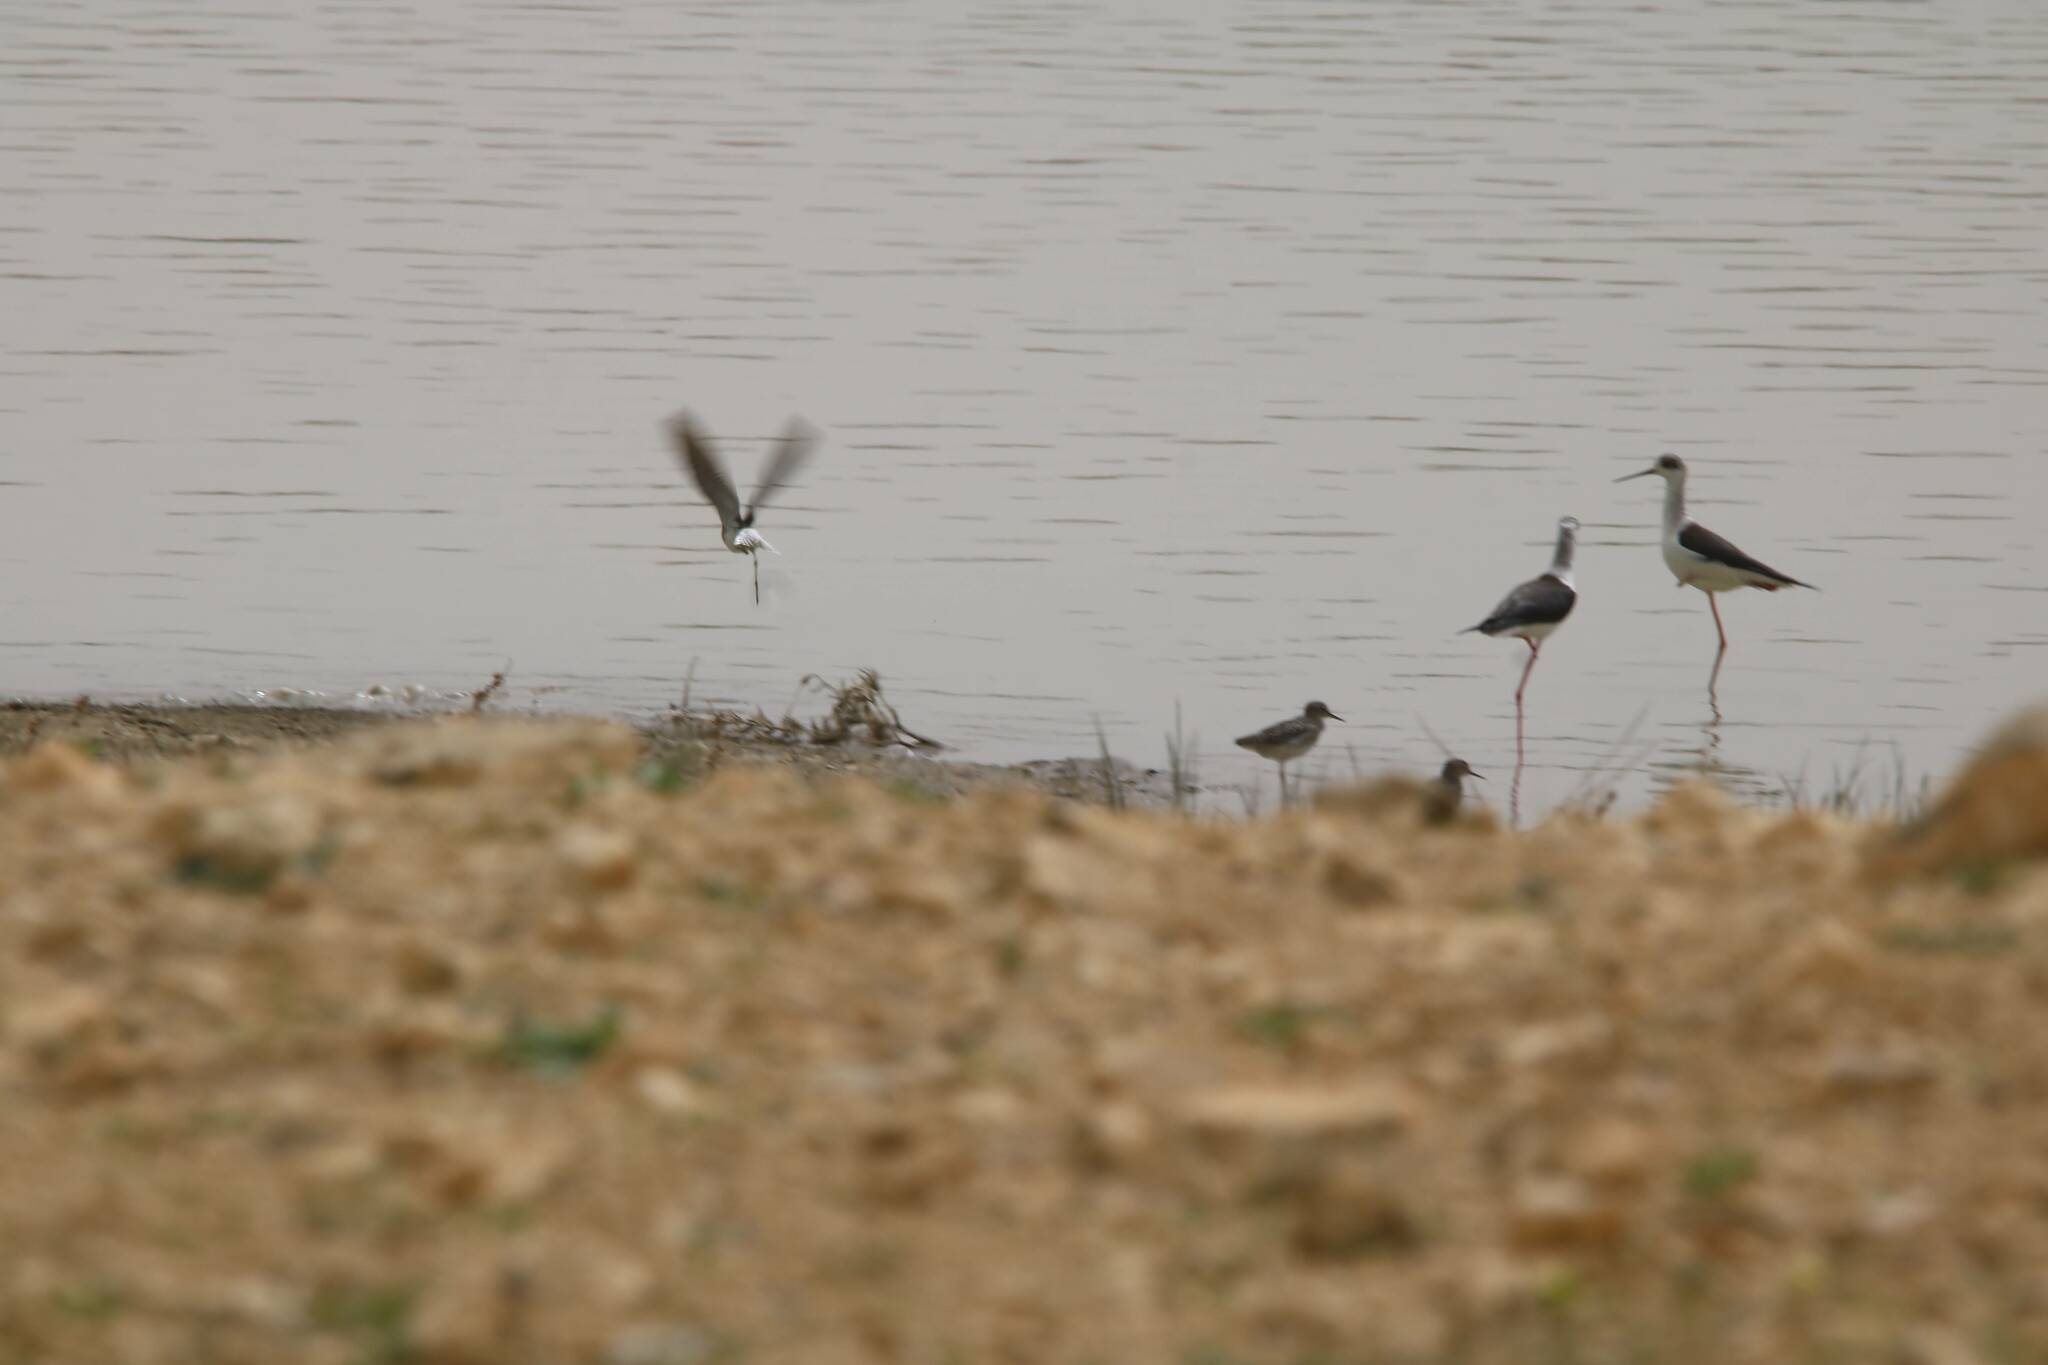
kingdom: Animalia
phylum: Chordata
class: Aves
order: Charadriiformes
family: Recurvirostridae
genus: Himantopus
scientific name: Himantopus himantopus
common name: Black-winged stilt
